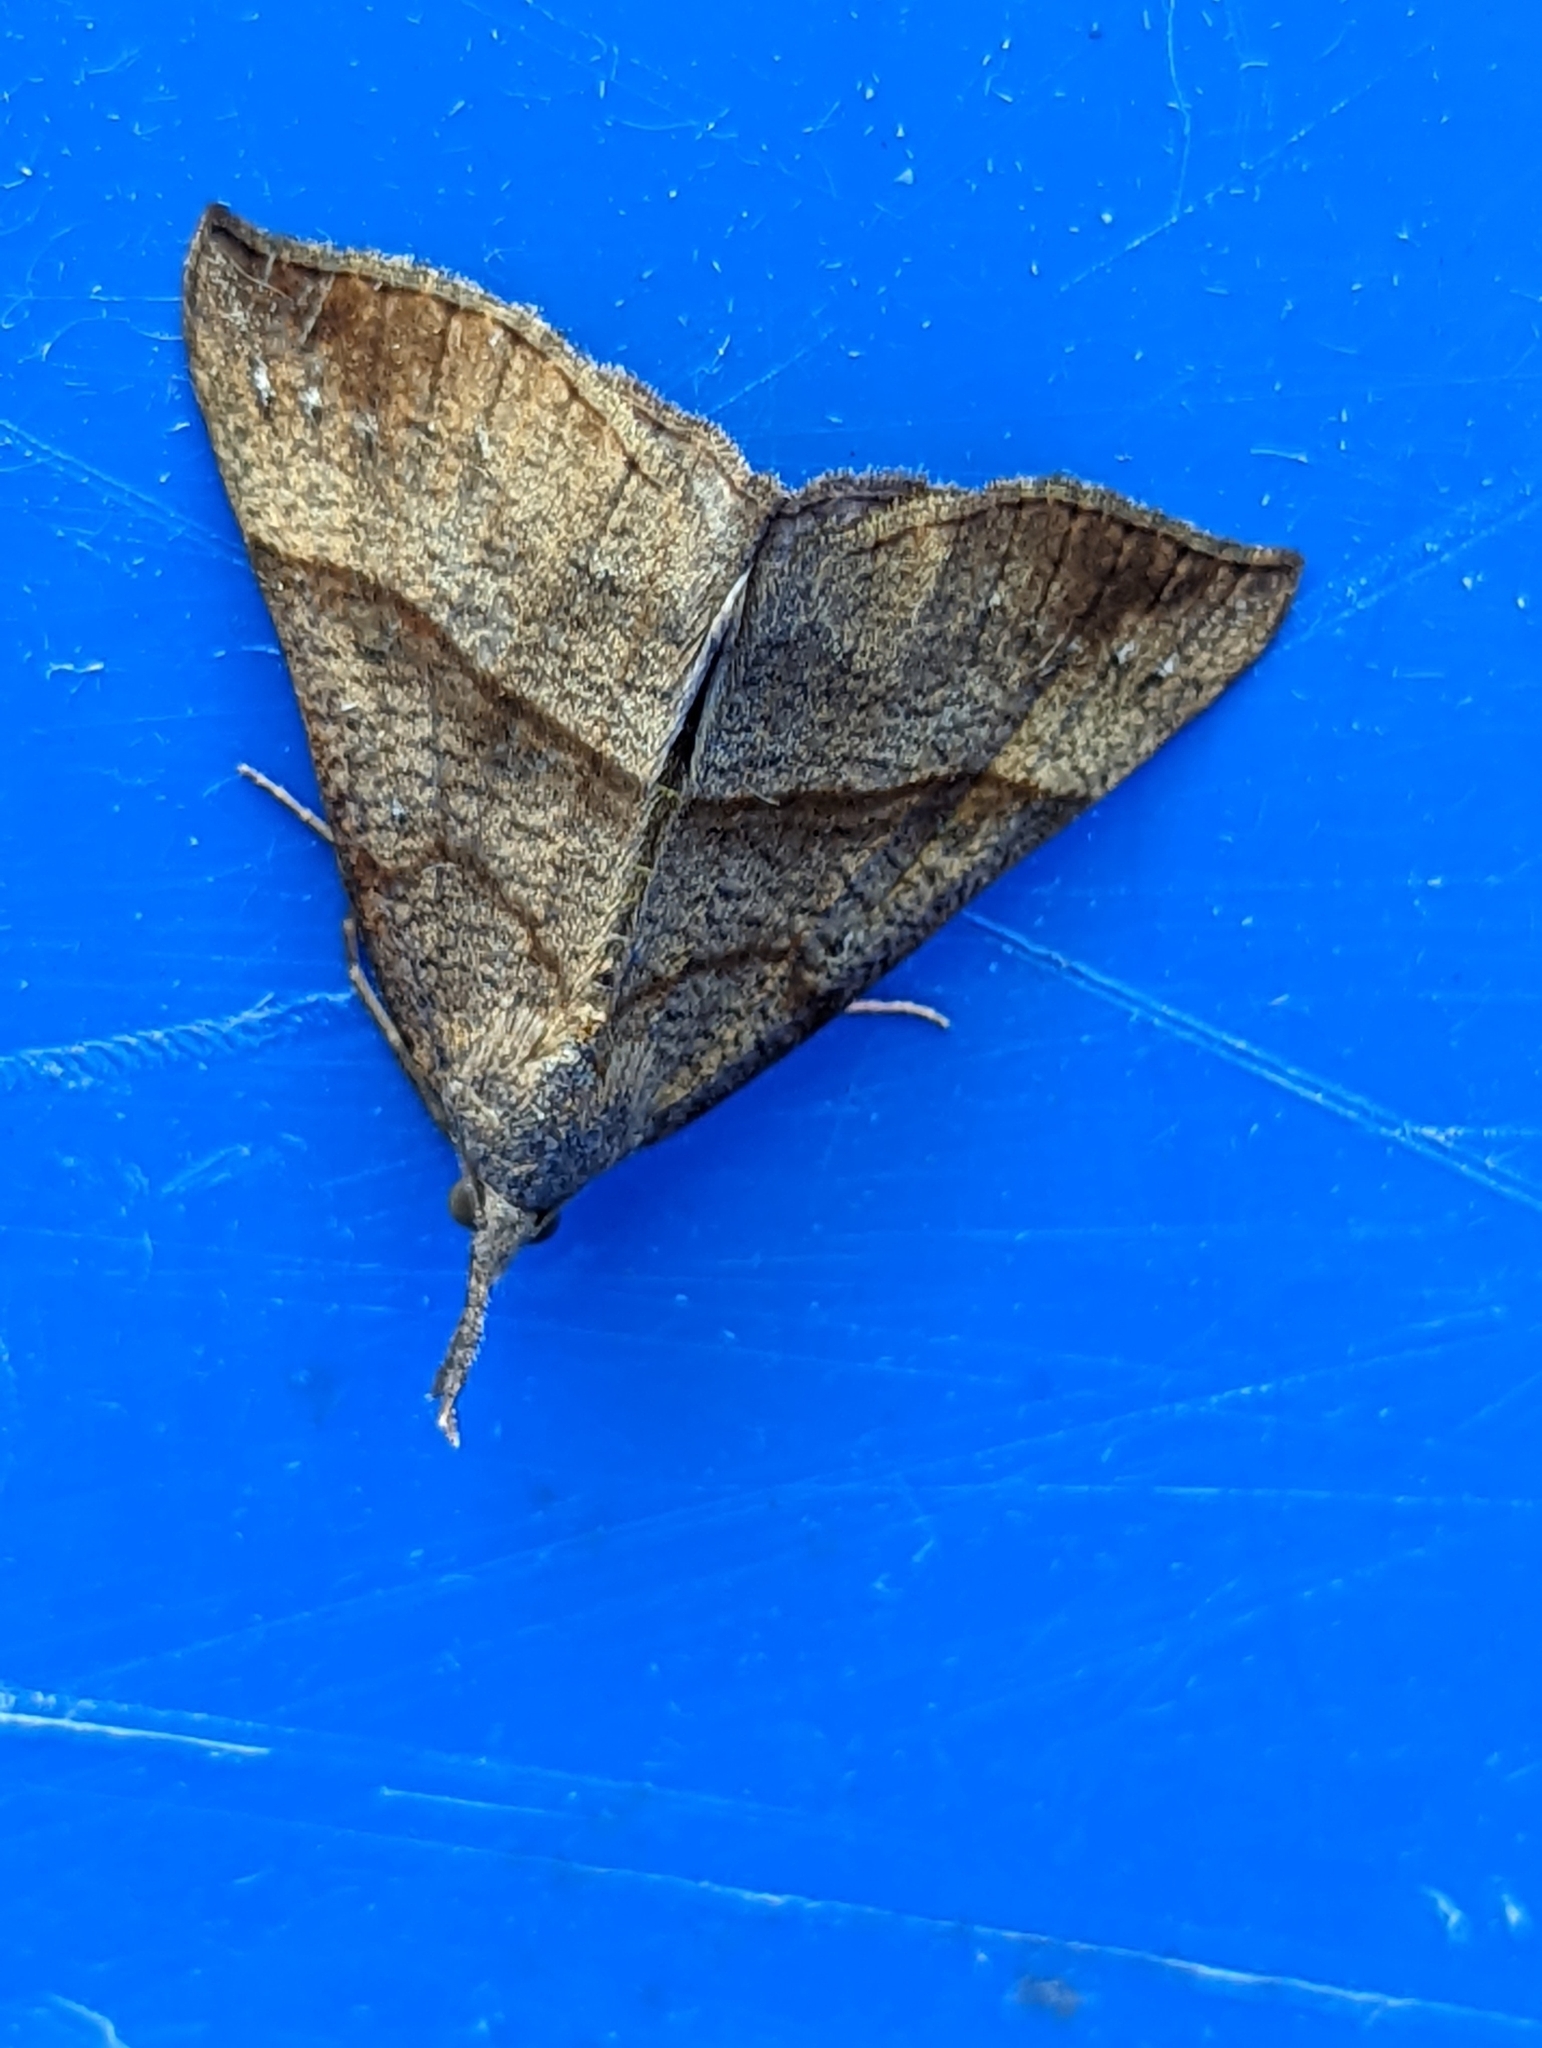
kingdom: Animalia
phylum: Arthropoda
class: Insecta
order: Lepidoptera
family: Erebidae
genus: Hypena
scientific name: Hypena proboscidalis
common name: Snout
